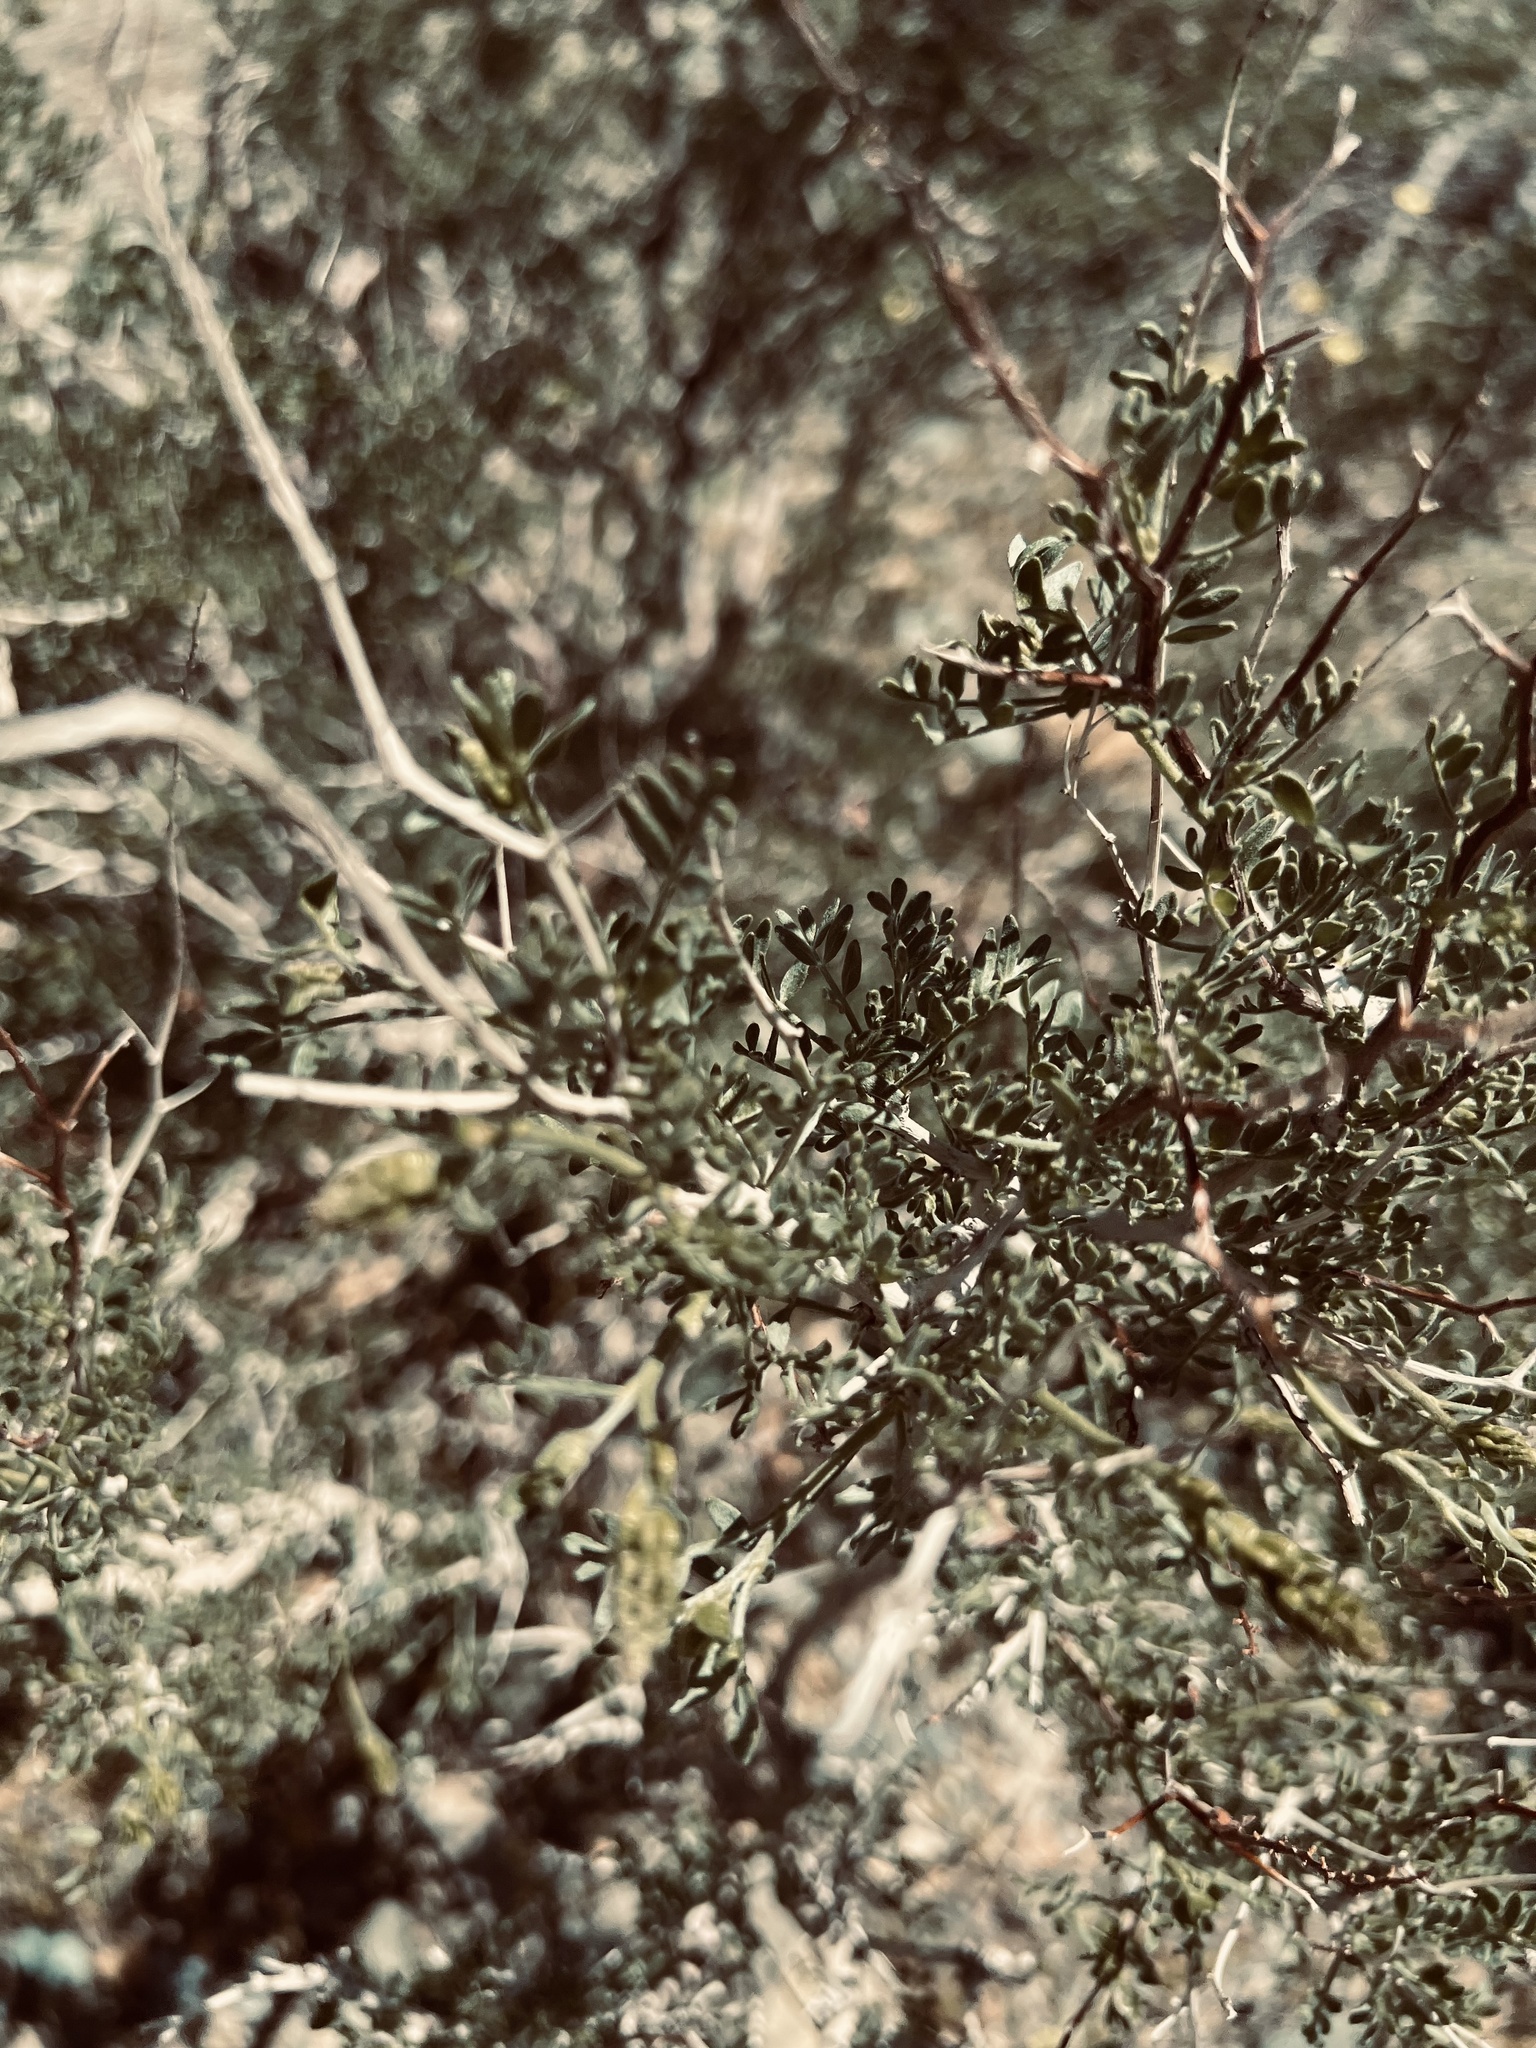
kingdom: Plantae
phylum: Tracheophyta
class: Magnoliopsida
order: Fabales
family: Fabaceae
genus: Psorothamnus
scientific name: Psorothamnus arborescens
